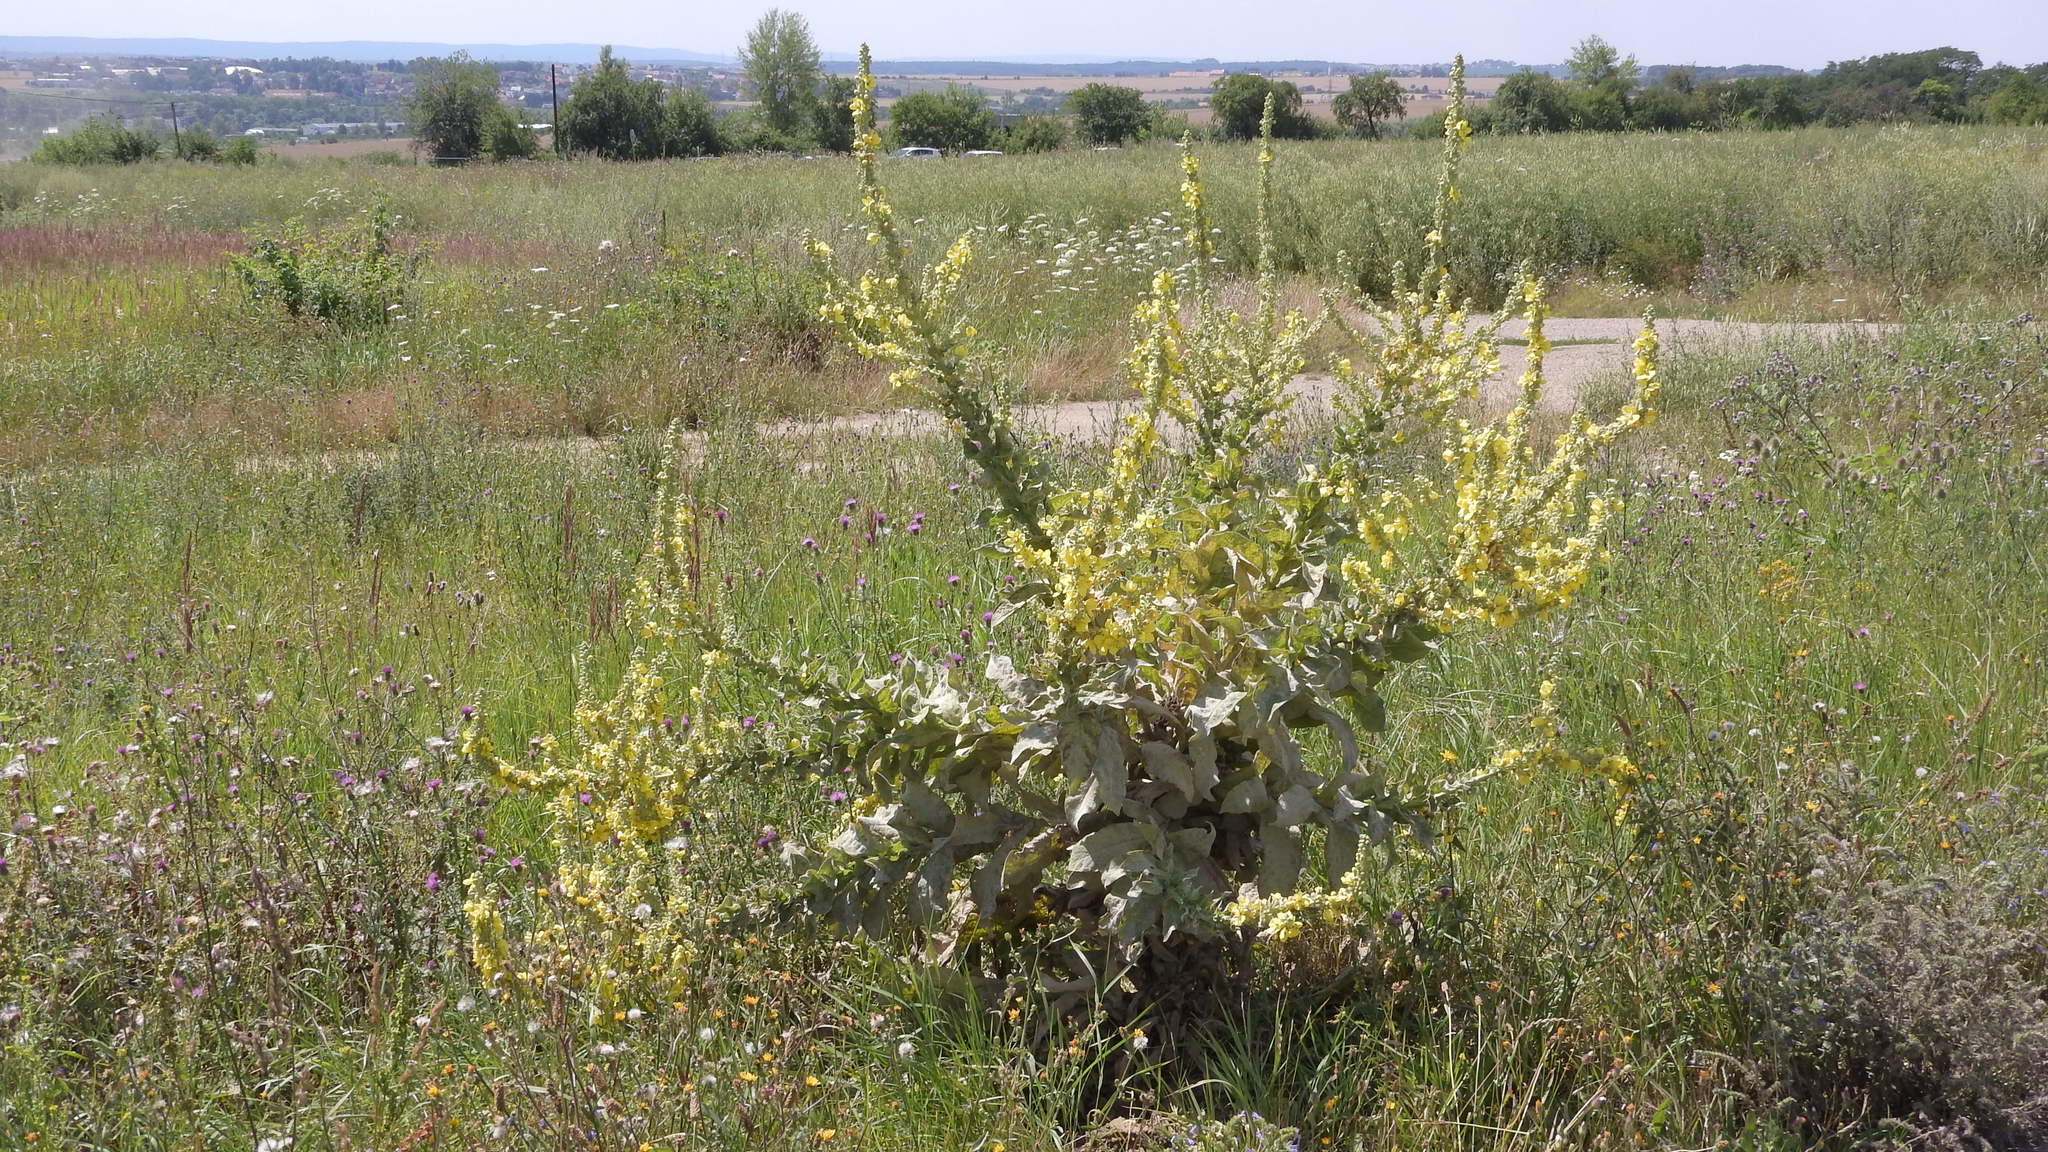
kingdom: Plantae
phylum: Tracheophyta
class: Magnoliopsida
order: Lamiales
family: Scrophulariaceae
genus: Verbascum
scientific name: Verbascum lychnitis
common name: White mullein
